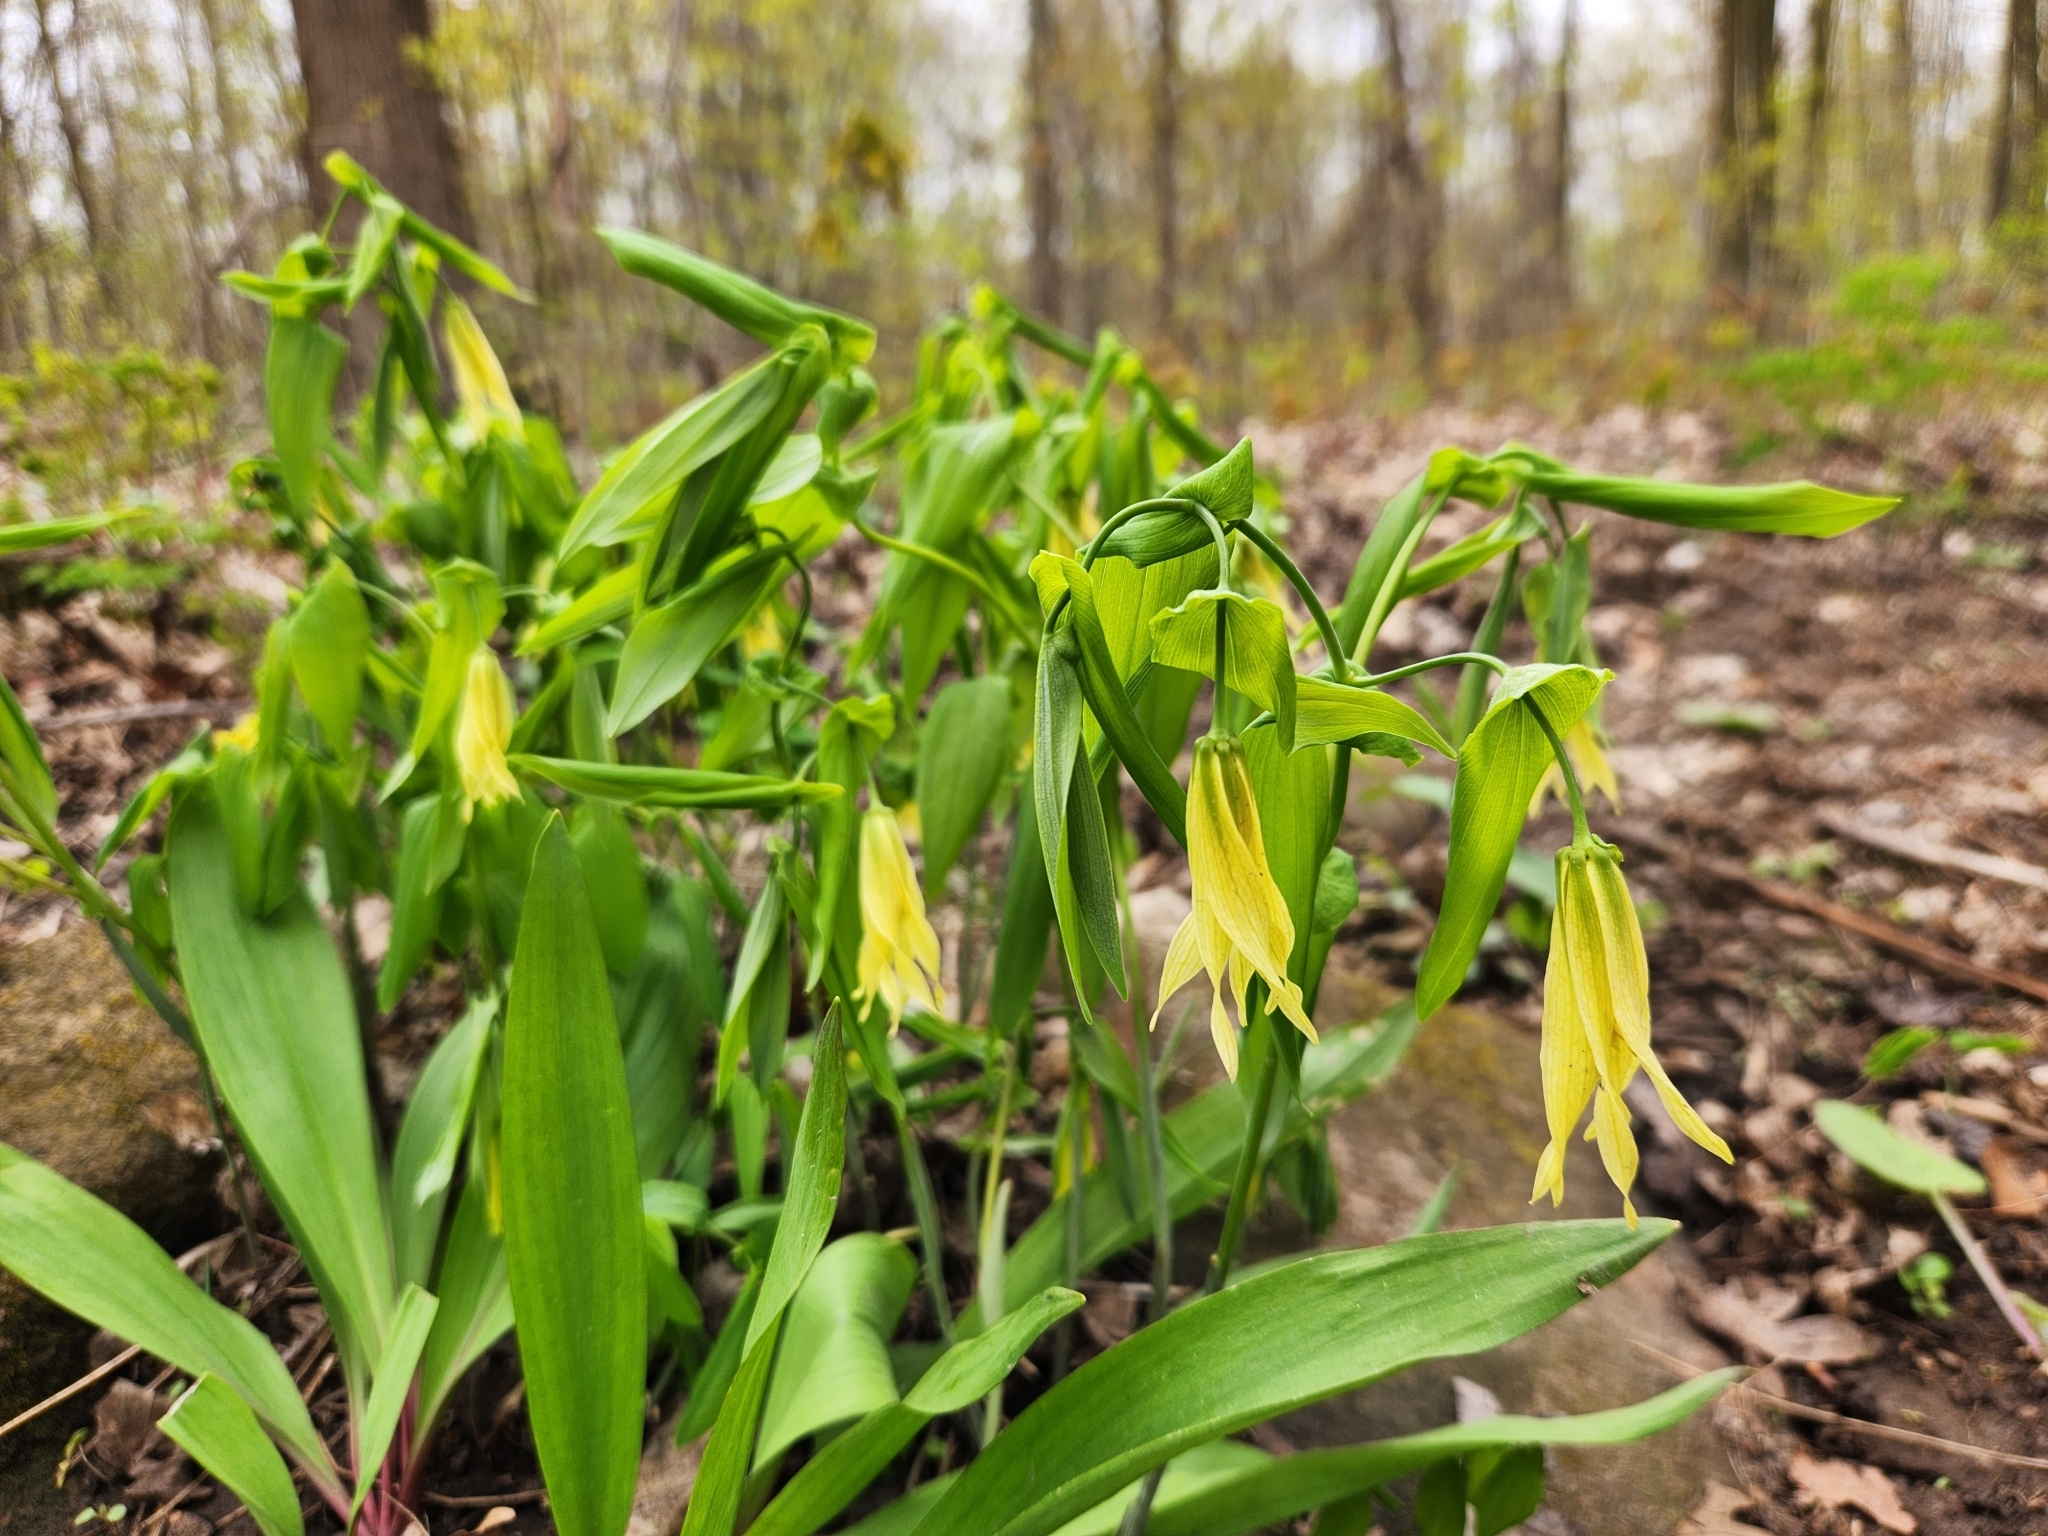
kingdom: Plantae
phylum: Tracheophyta
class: Liliopsida
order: Liliales
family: Colchicaceae
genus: Uvularia
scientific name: Uvularia grandiflora
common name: Bellwort
